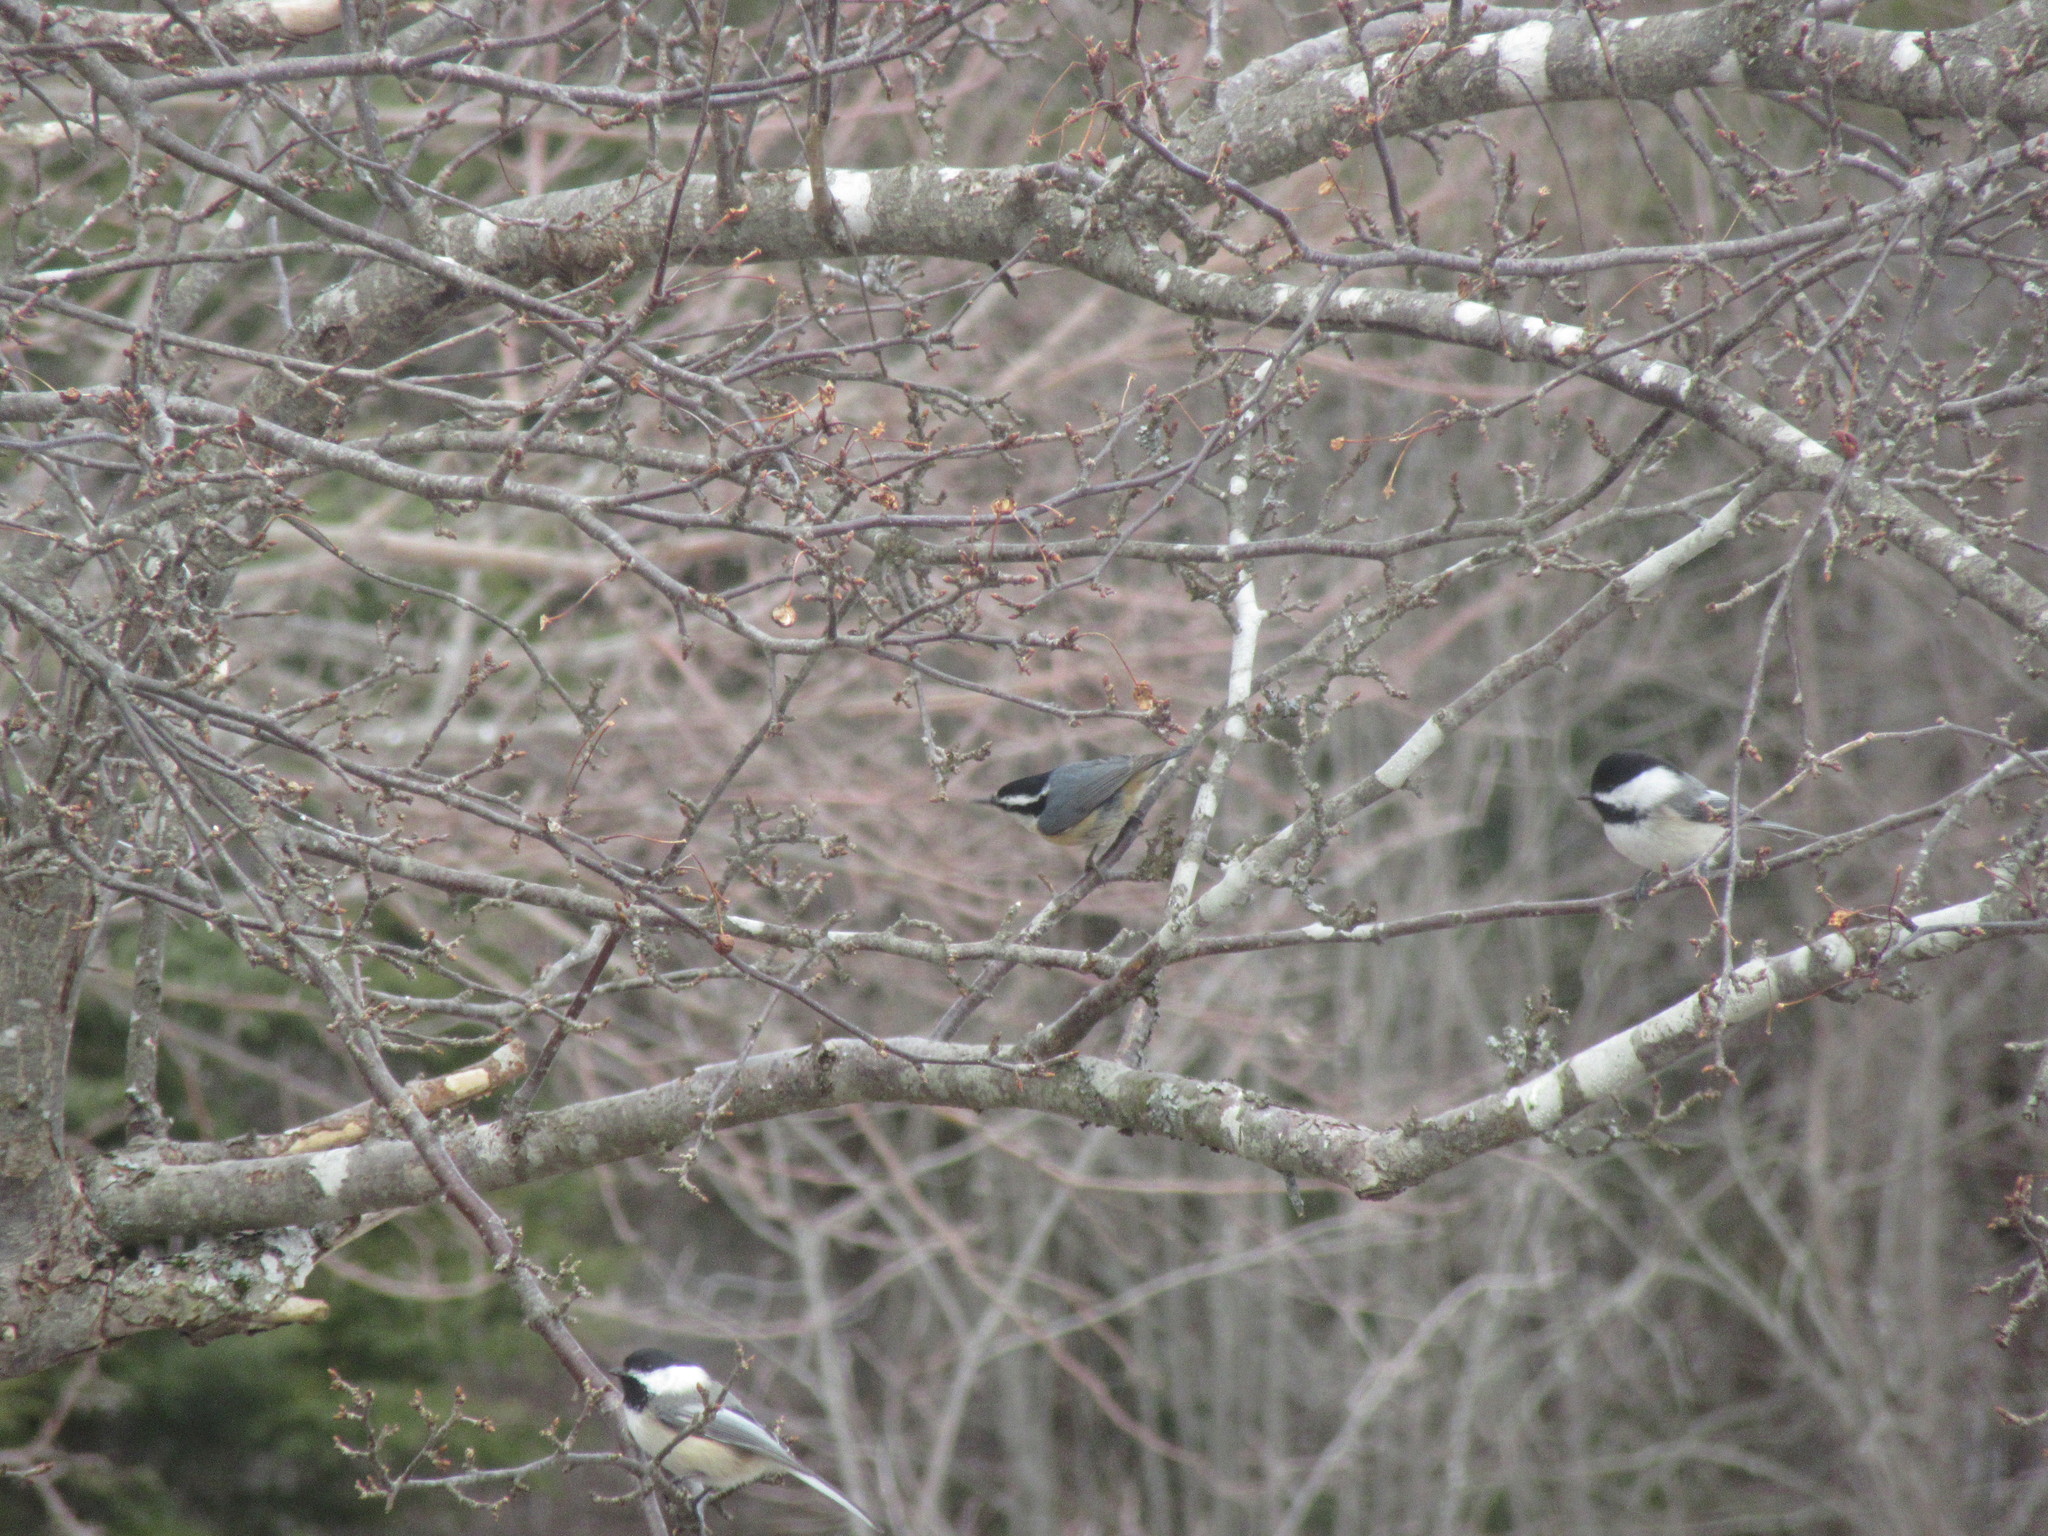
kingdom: Animalia
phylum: Chordata
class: Aves
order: Passeriformes
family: Sittidae
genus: Sitta
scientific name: Sitta canadensis
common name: Red-breasted nuthatch
